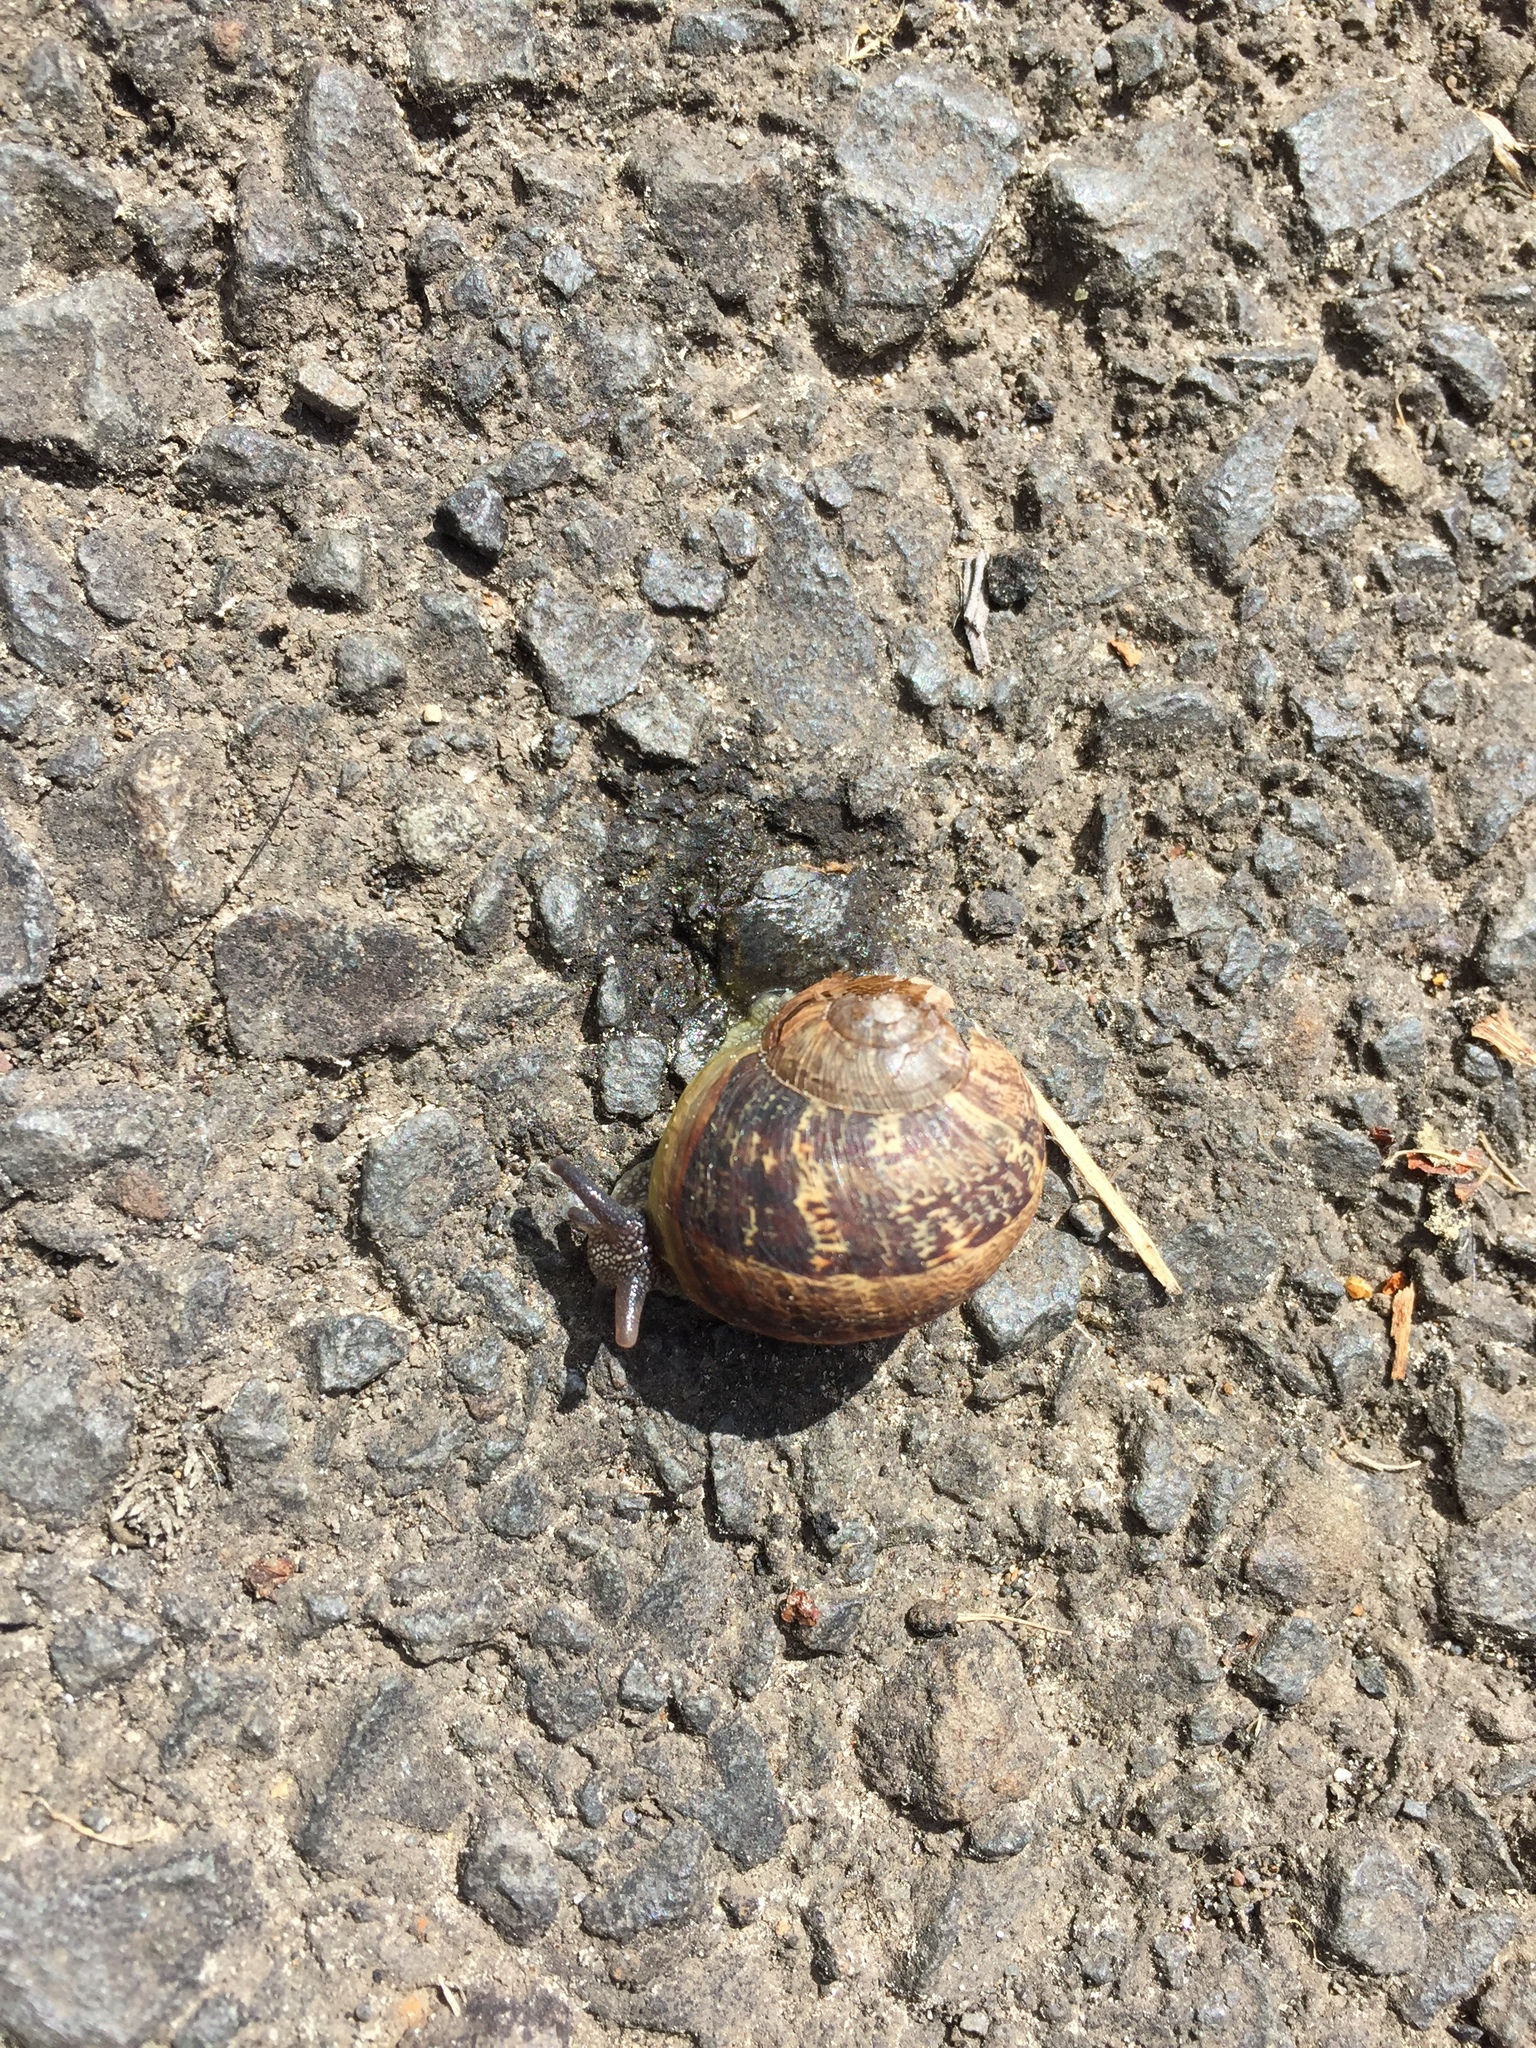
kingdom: Animalia
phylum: Mollusca
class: Gastropoda
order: Stylommatophora
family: Helicidae
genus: Cornu
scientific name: Cornu aspersum
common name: Brown garden snail
